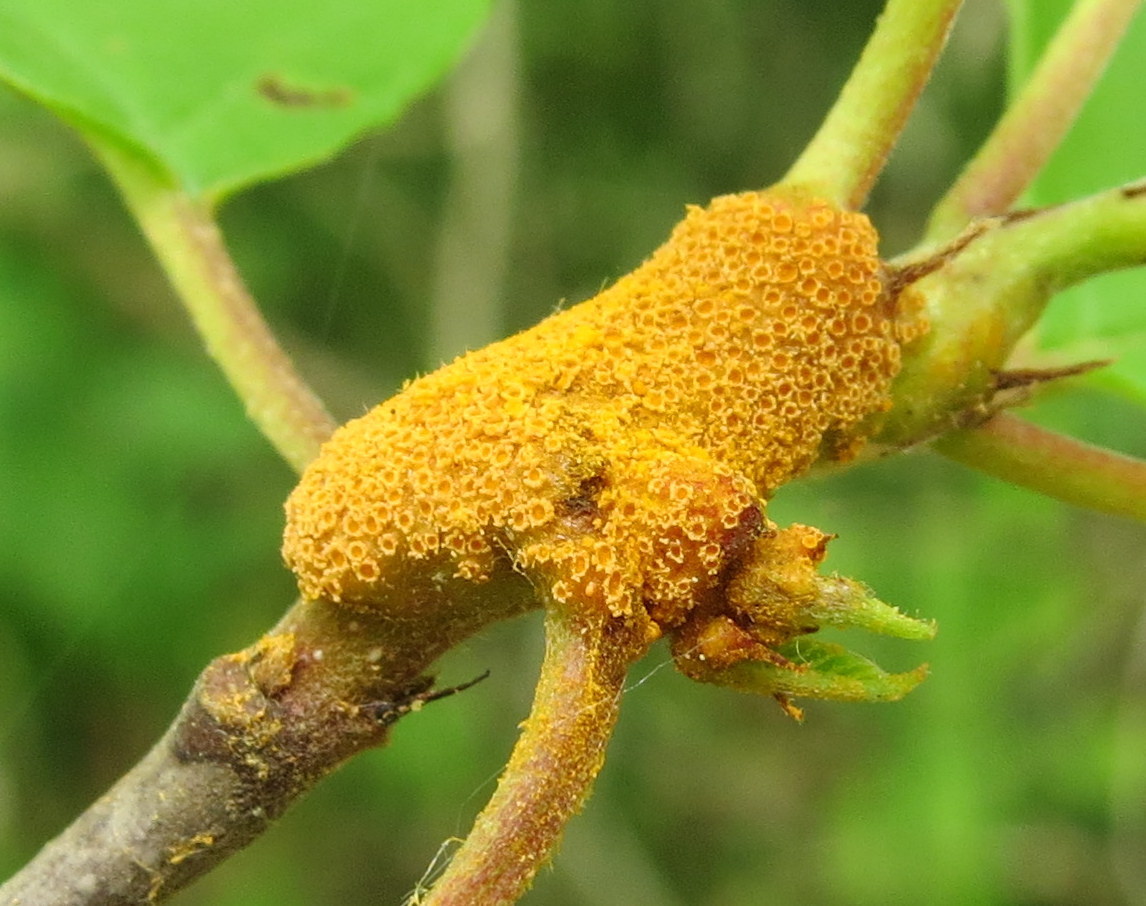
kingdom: Fungi
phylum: Basidiomycota
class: Pucciniomycetes
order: Pucciniales
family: Pucciniaceae
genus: Puccinia
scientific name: Puccinia coronata
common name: Crown rust
